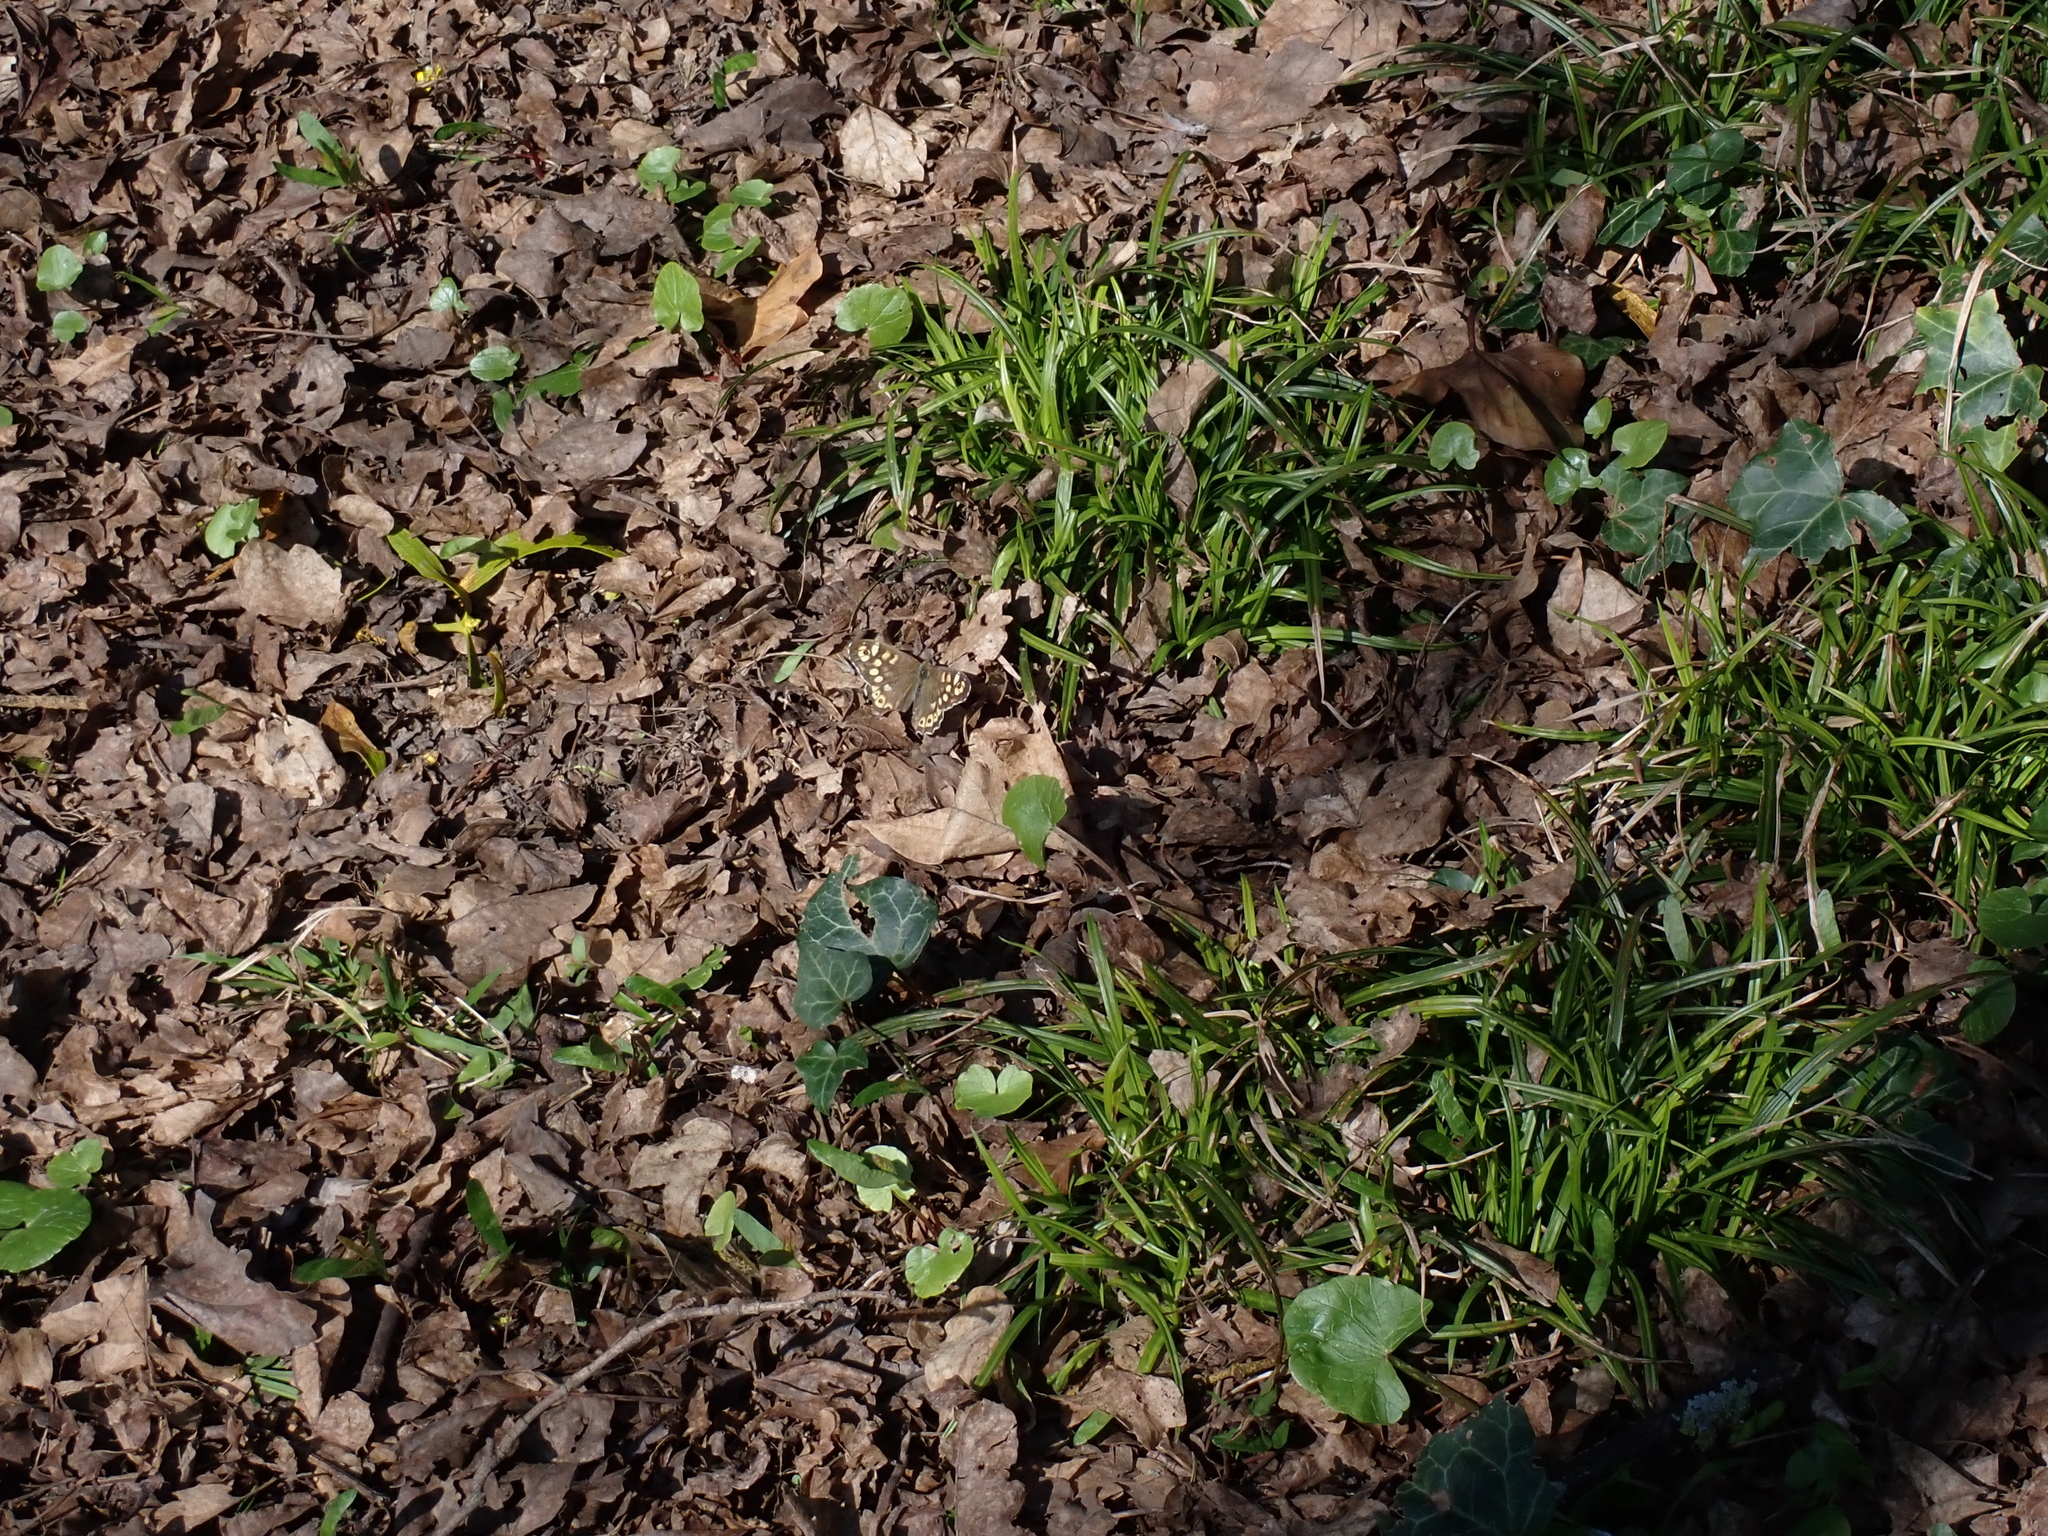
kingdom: Animalia
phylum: Arthropoda
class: Insecta
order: Lepidoptera
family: Nymphalidae
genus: Pararge
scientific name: Pararge aegeria
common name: Speckled wood
